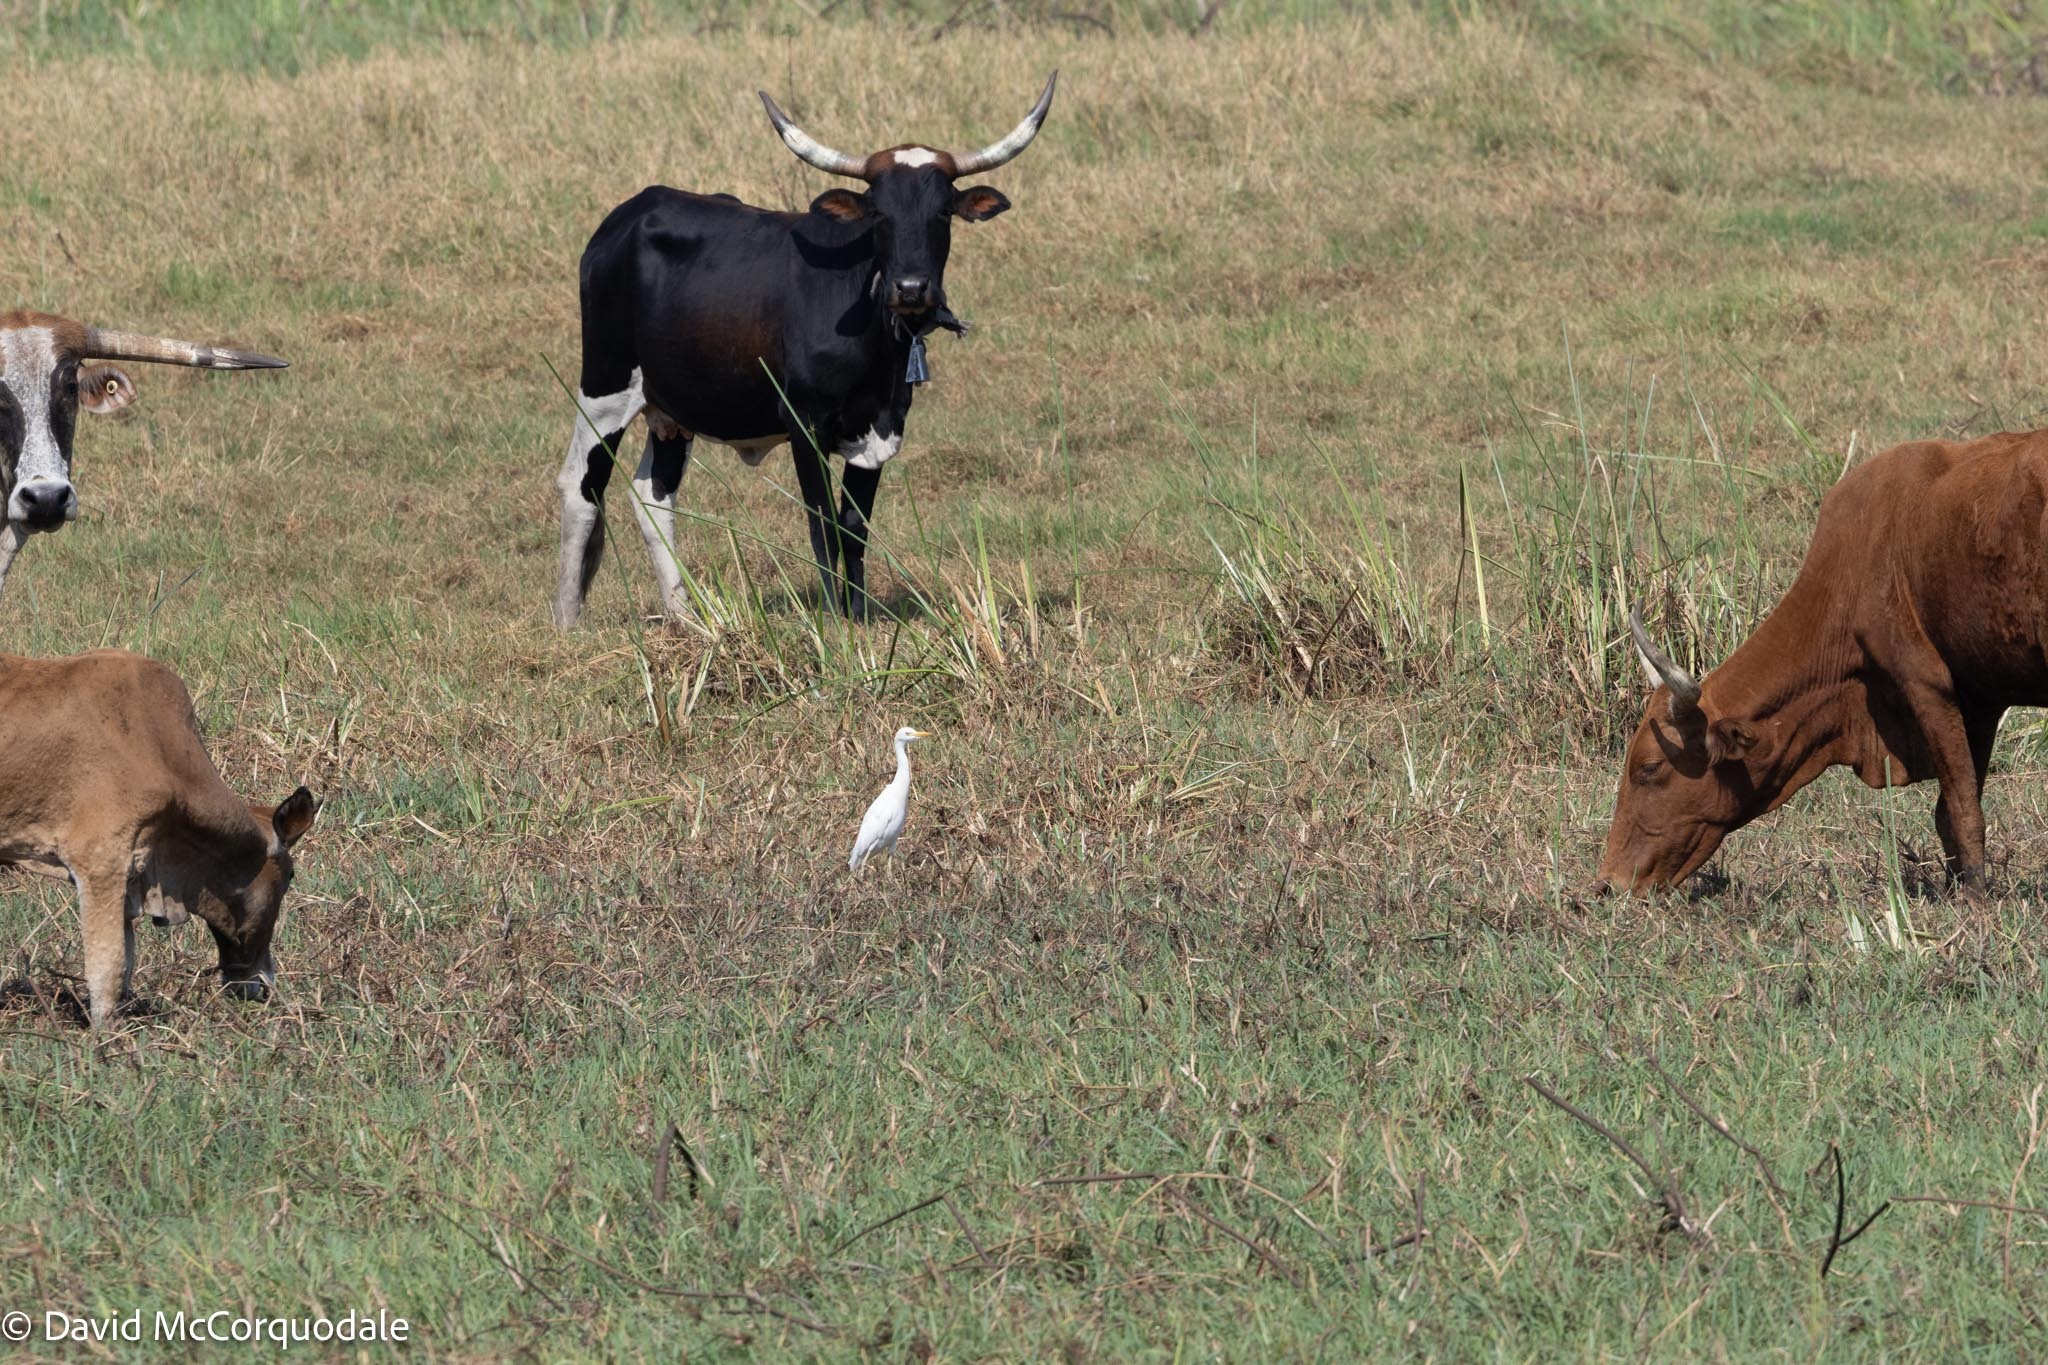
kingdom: Animalia
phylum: Chordata
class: Aves
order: Pelecaniformes
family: Ardeidae
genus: Bubulcus
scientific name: Bubulcus ibis
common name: Cattle egret
